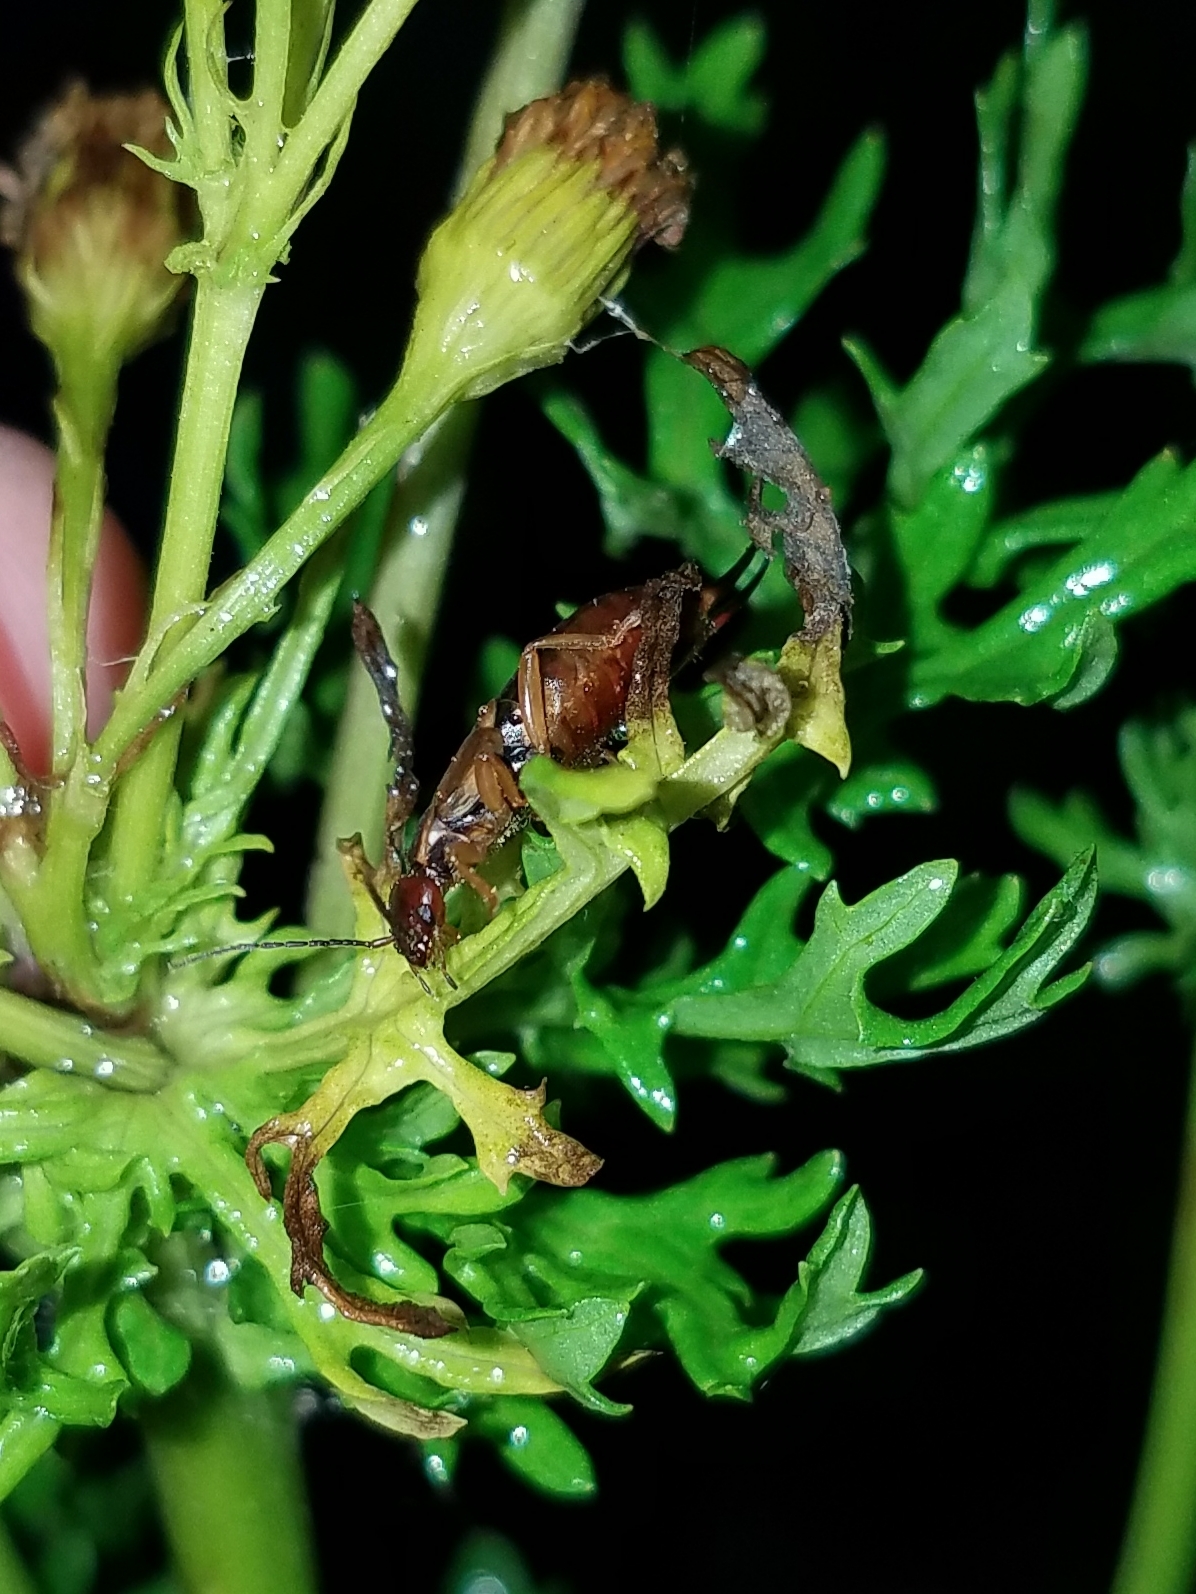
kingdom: Animalia
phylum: Arthropoda
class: Insecta
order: Dermaptera
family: Forficulidae
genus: Forficula
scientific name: Forficula
